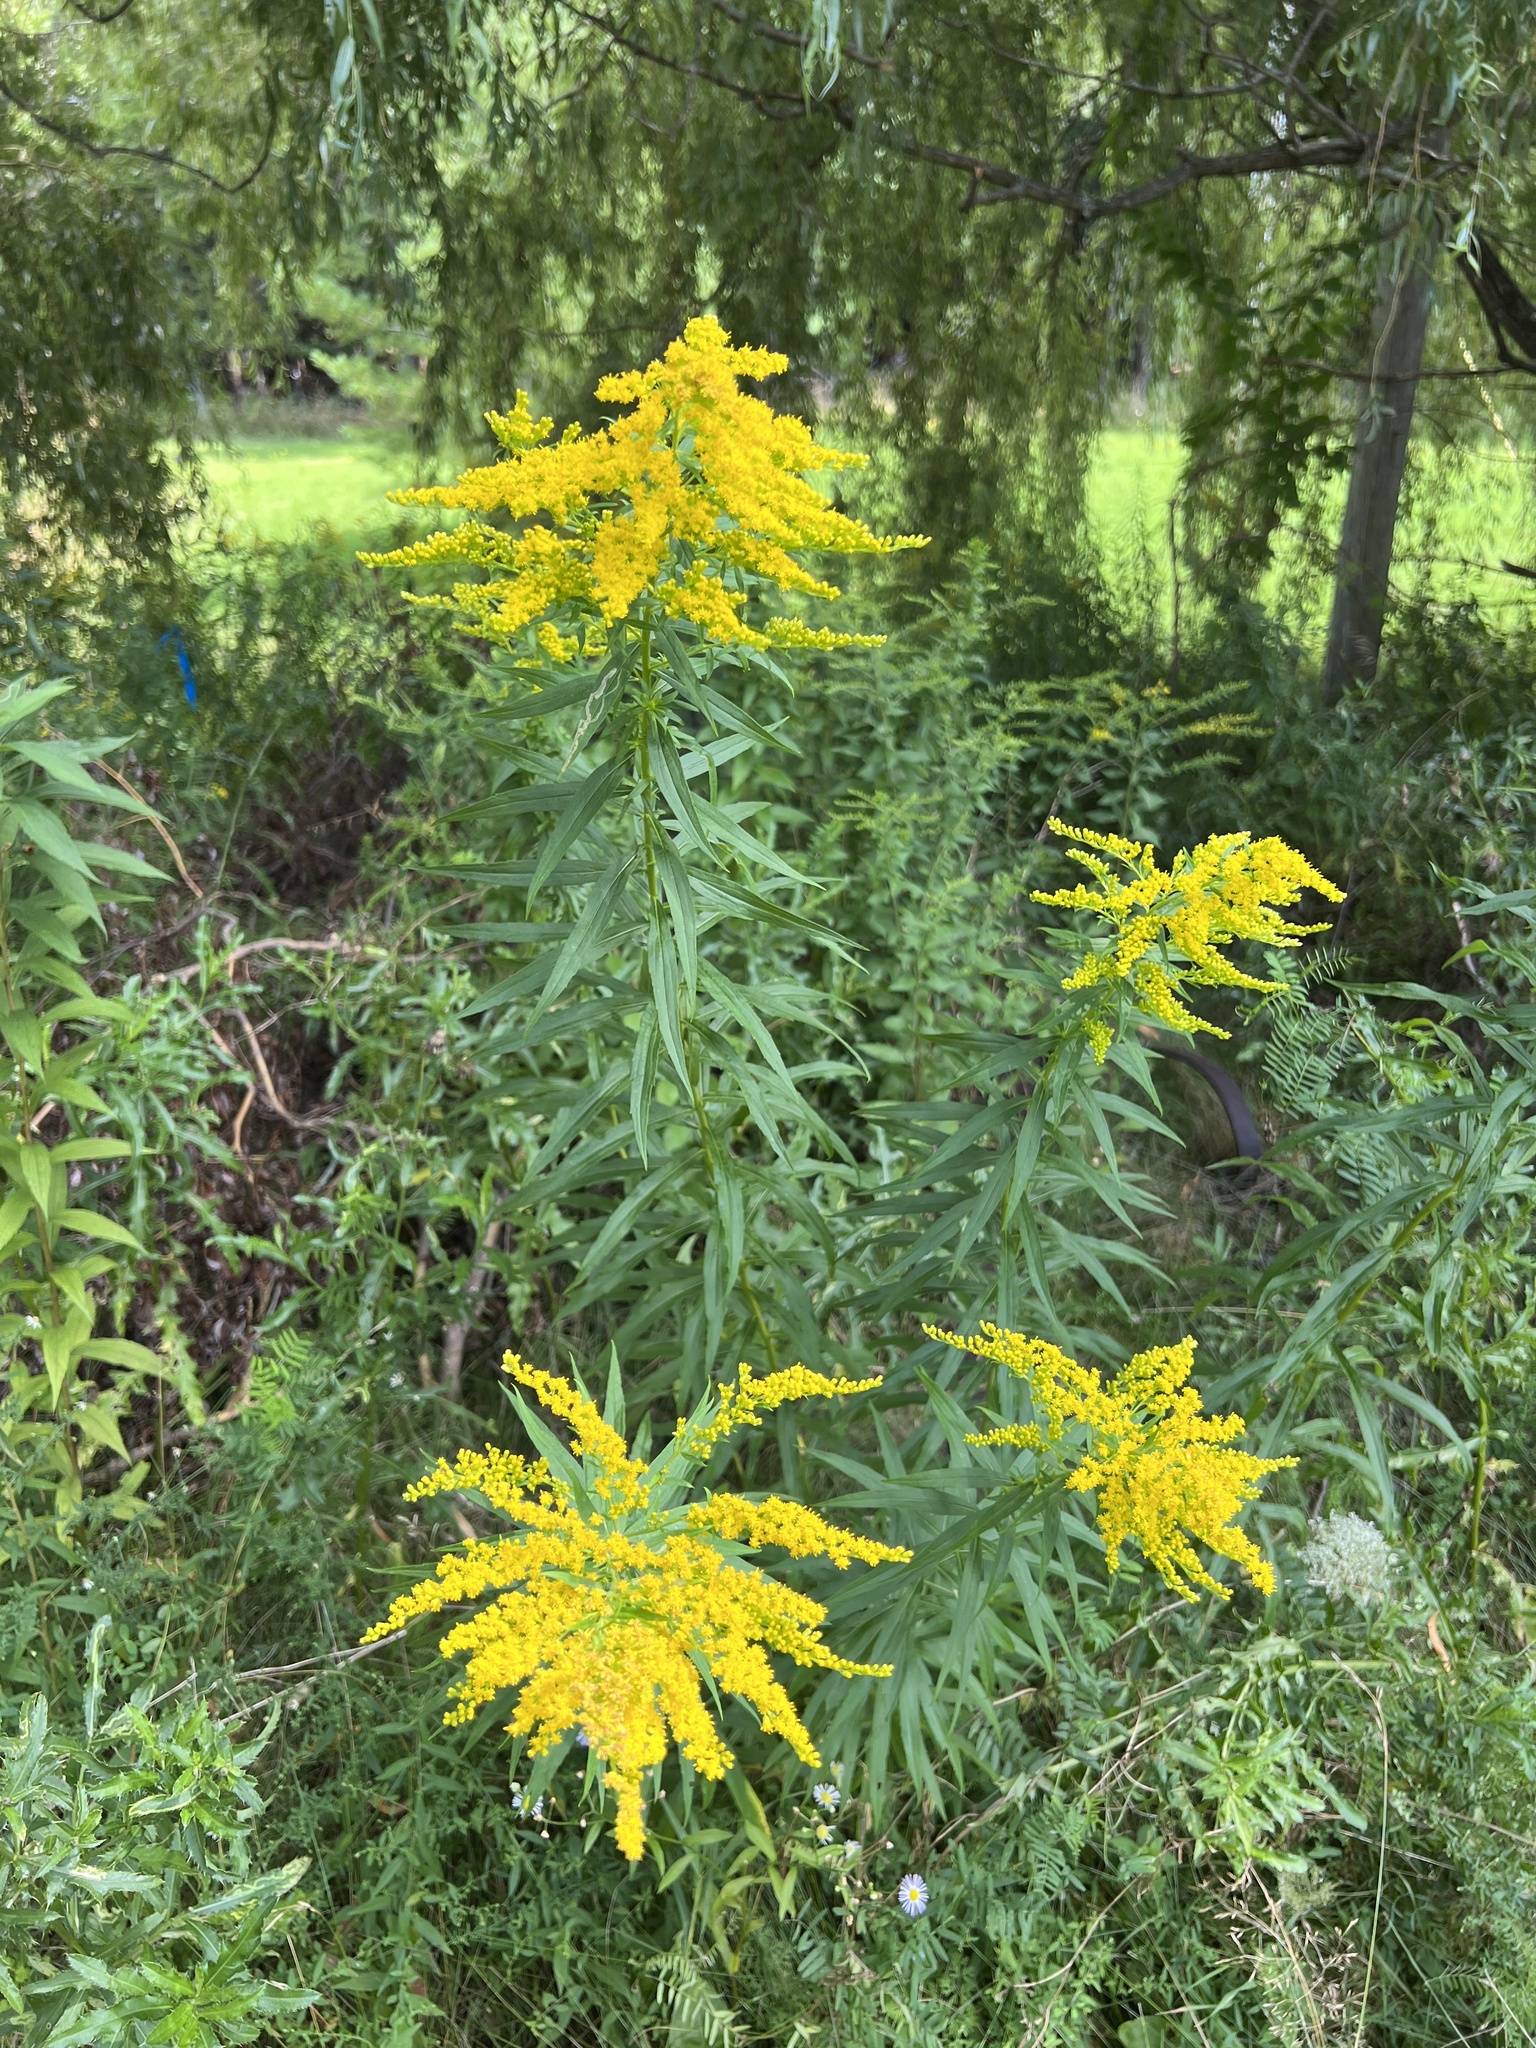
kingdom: Plantae
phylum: Tracheophyta
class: Magnoliopsida
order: Asterales
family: Asteraceae
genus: Solidago
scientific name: Solidago canadensis
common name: Canada goldenrod
